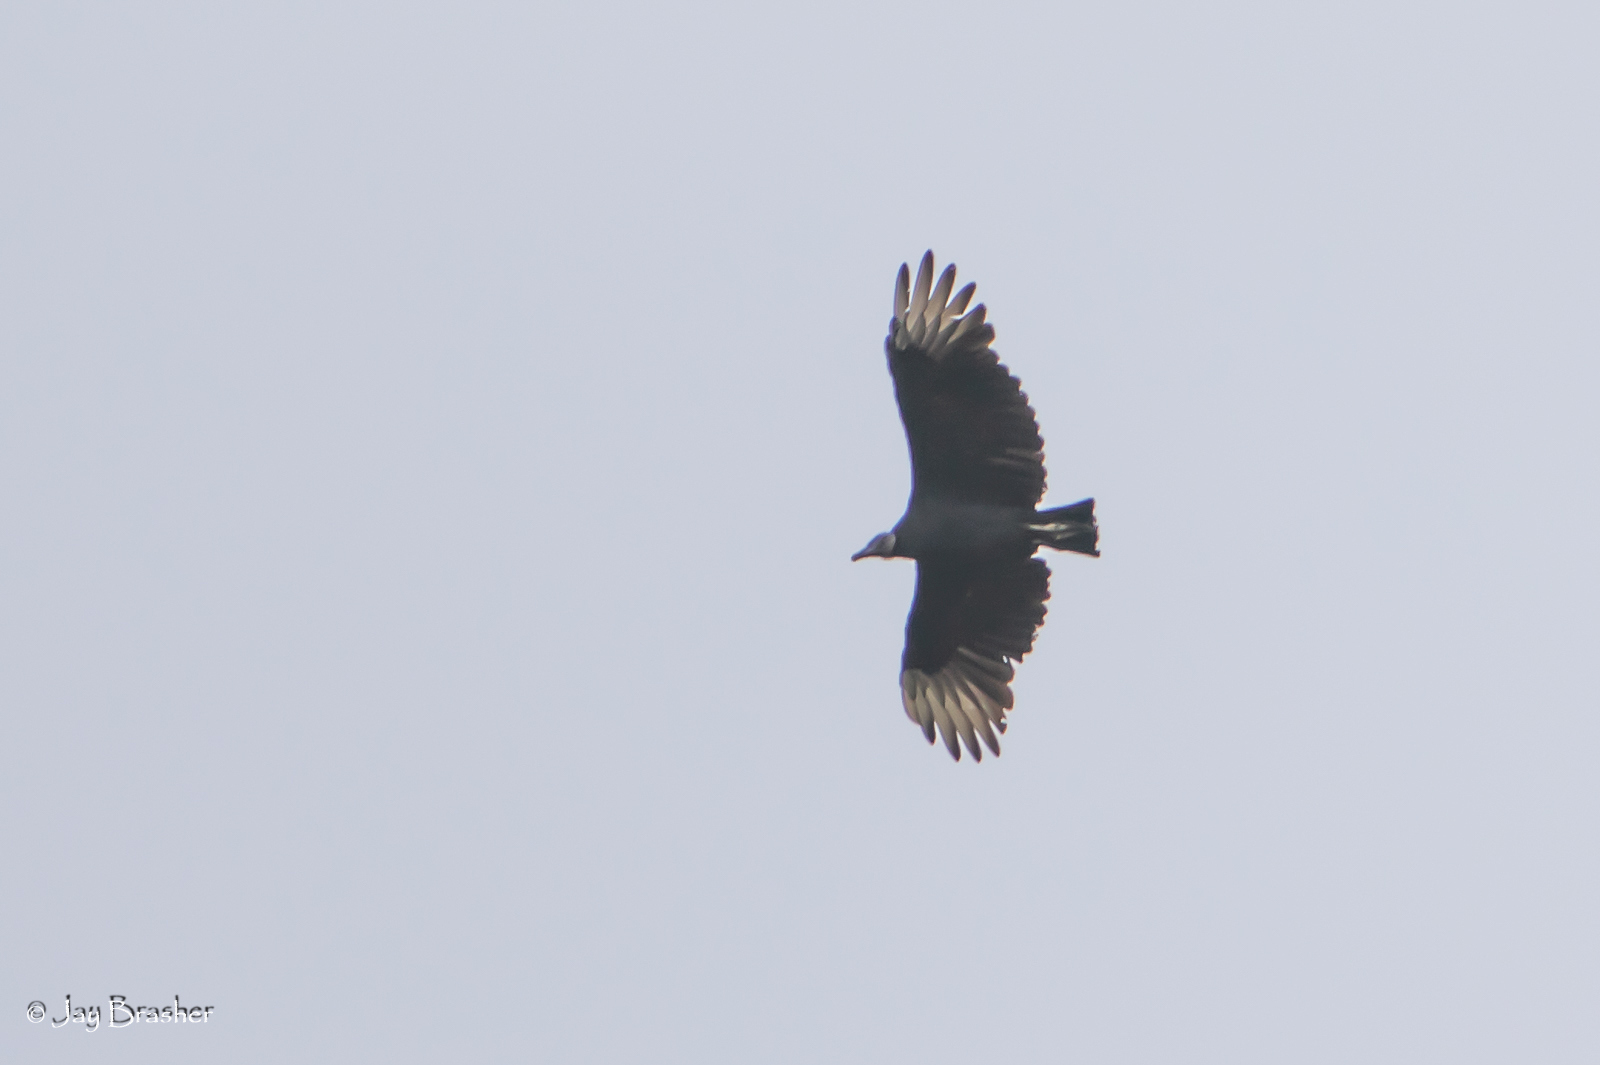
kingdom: Animalia
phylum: Chordata
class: Aves
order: Accipitriformes
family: Cathartidae
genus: Coragyps
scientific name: Coragyps atratus
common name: Black vulture
